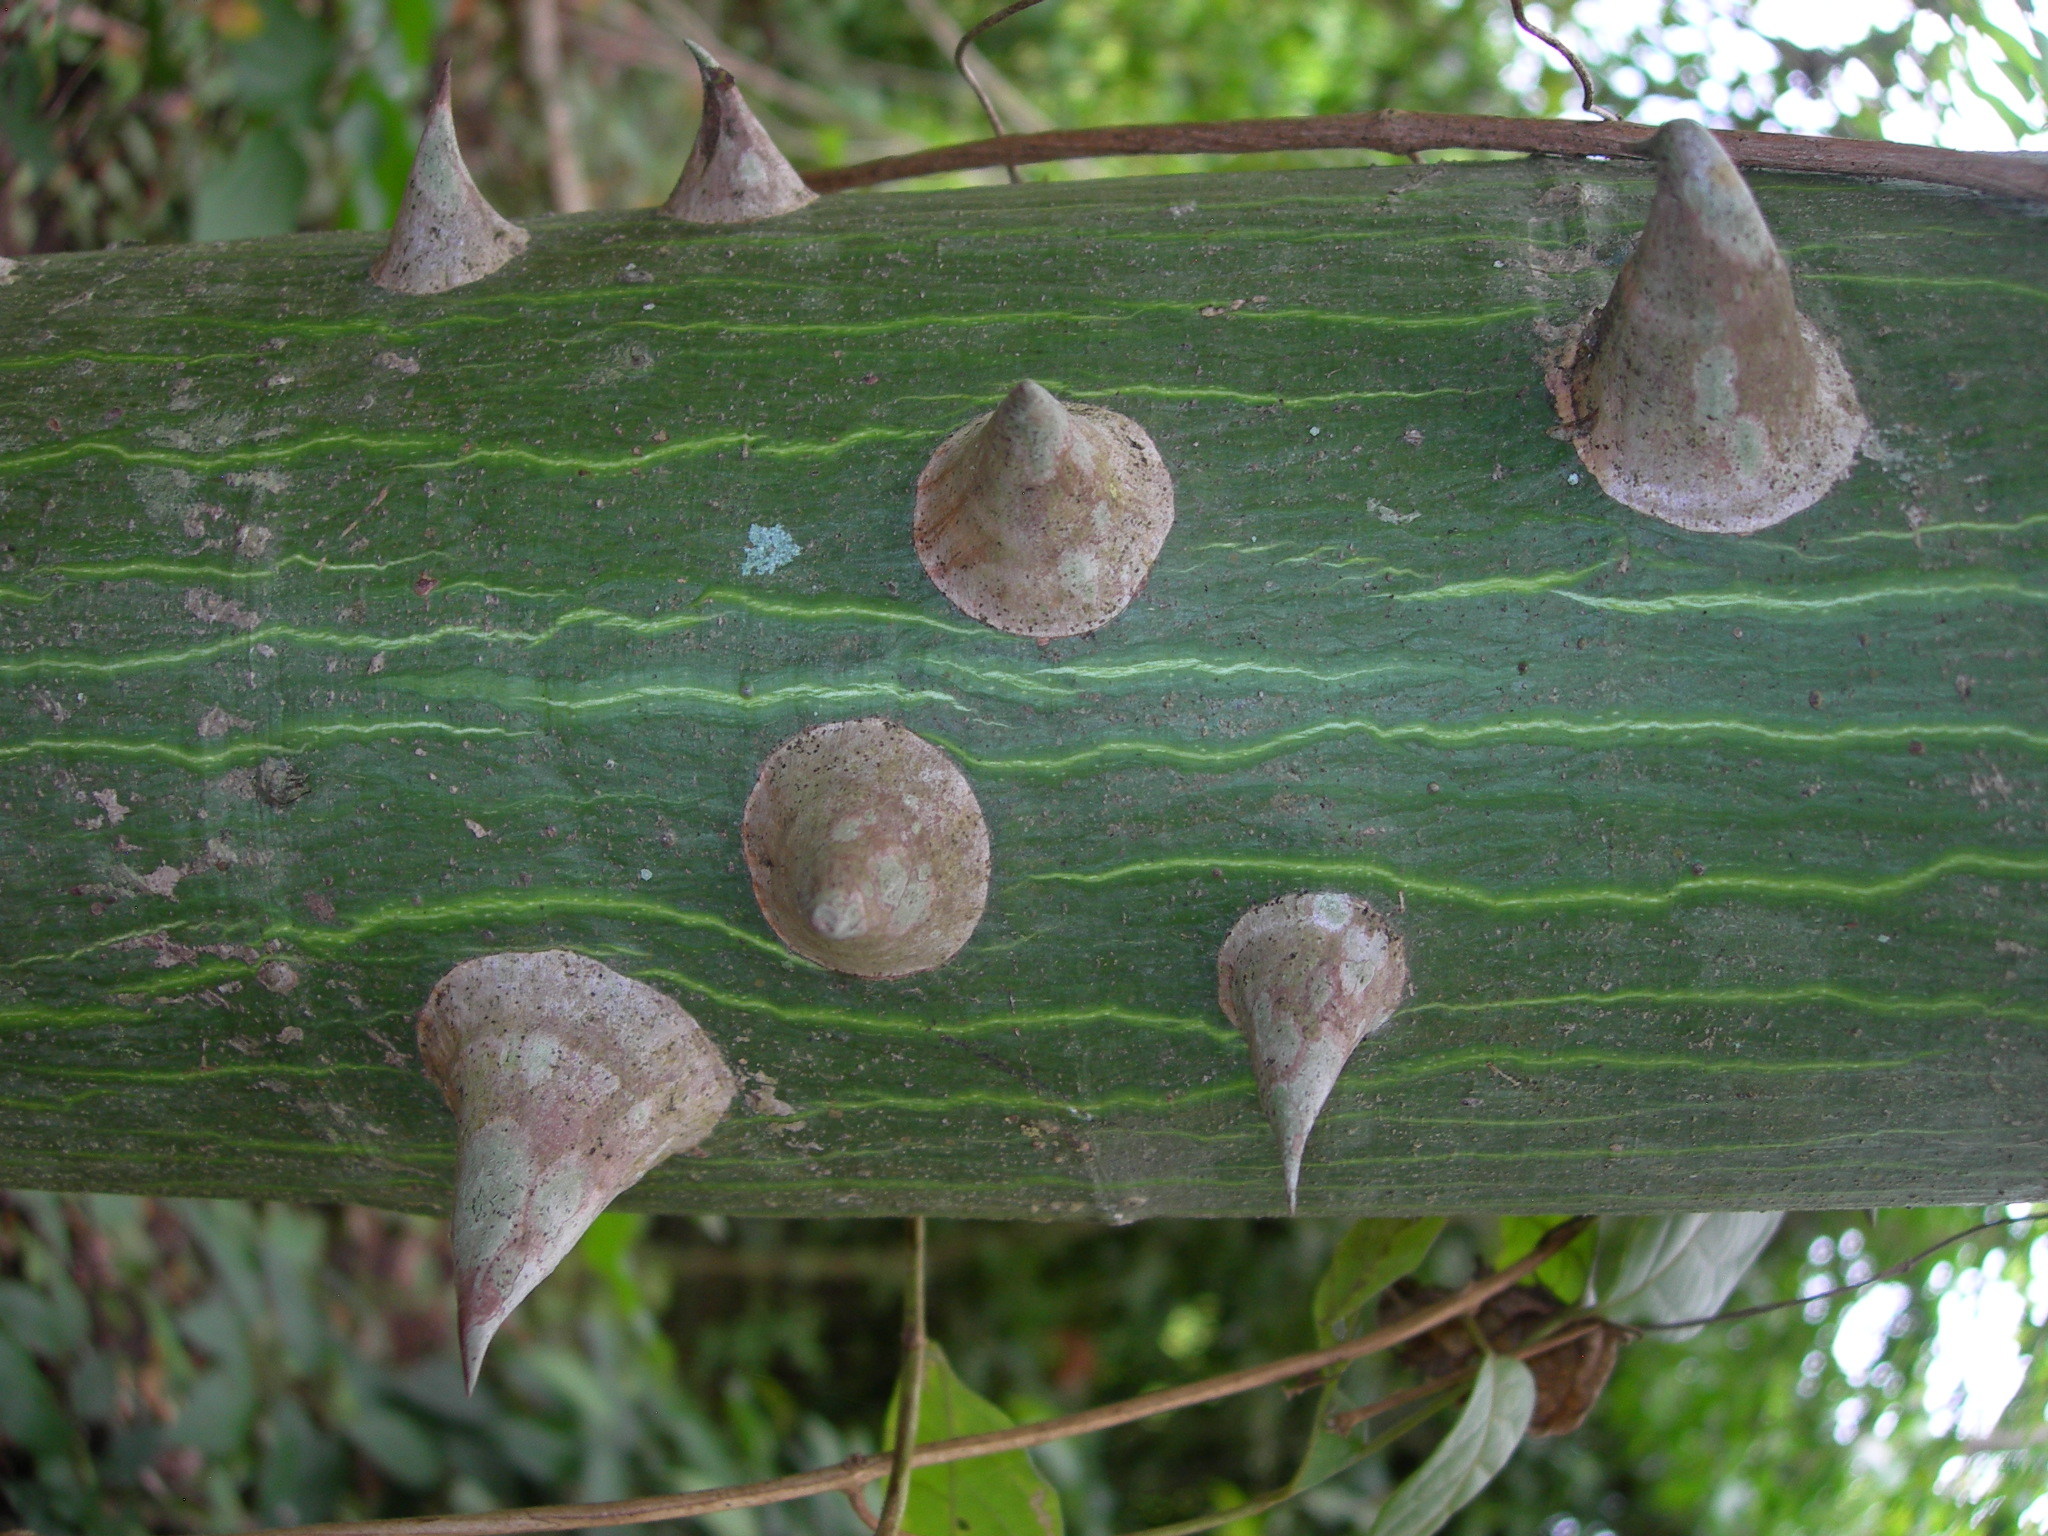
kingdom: Plantae
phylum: Tracheophyta
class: Magnoliopsida
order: Malvales
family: Malvaceae
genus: Ceiba
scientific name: Ceiba pentandra
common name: Kapok
